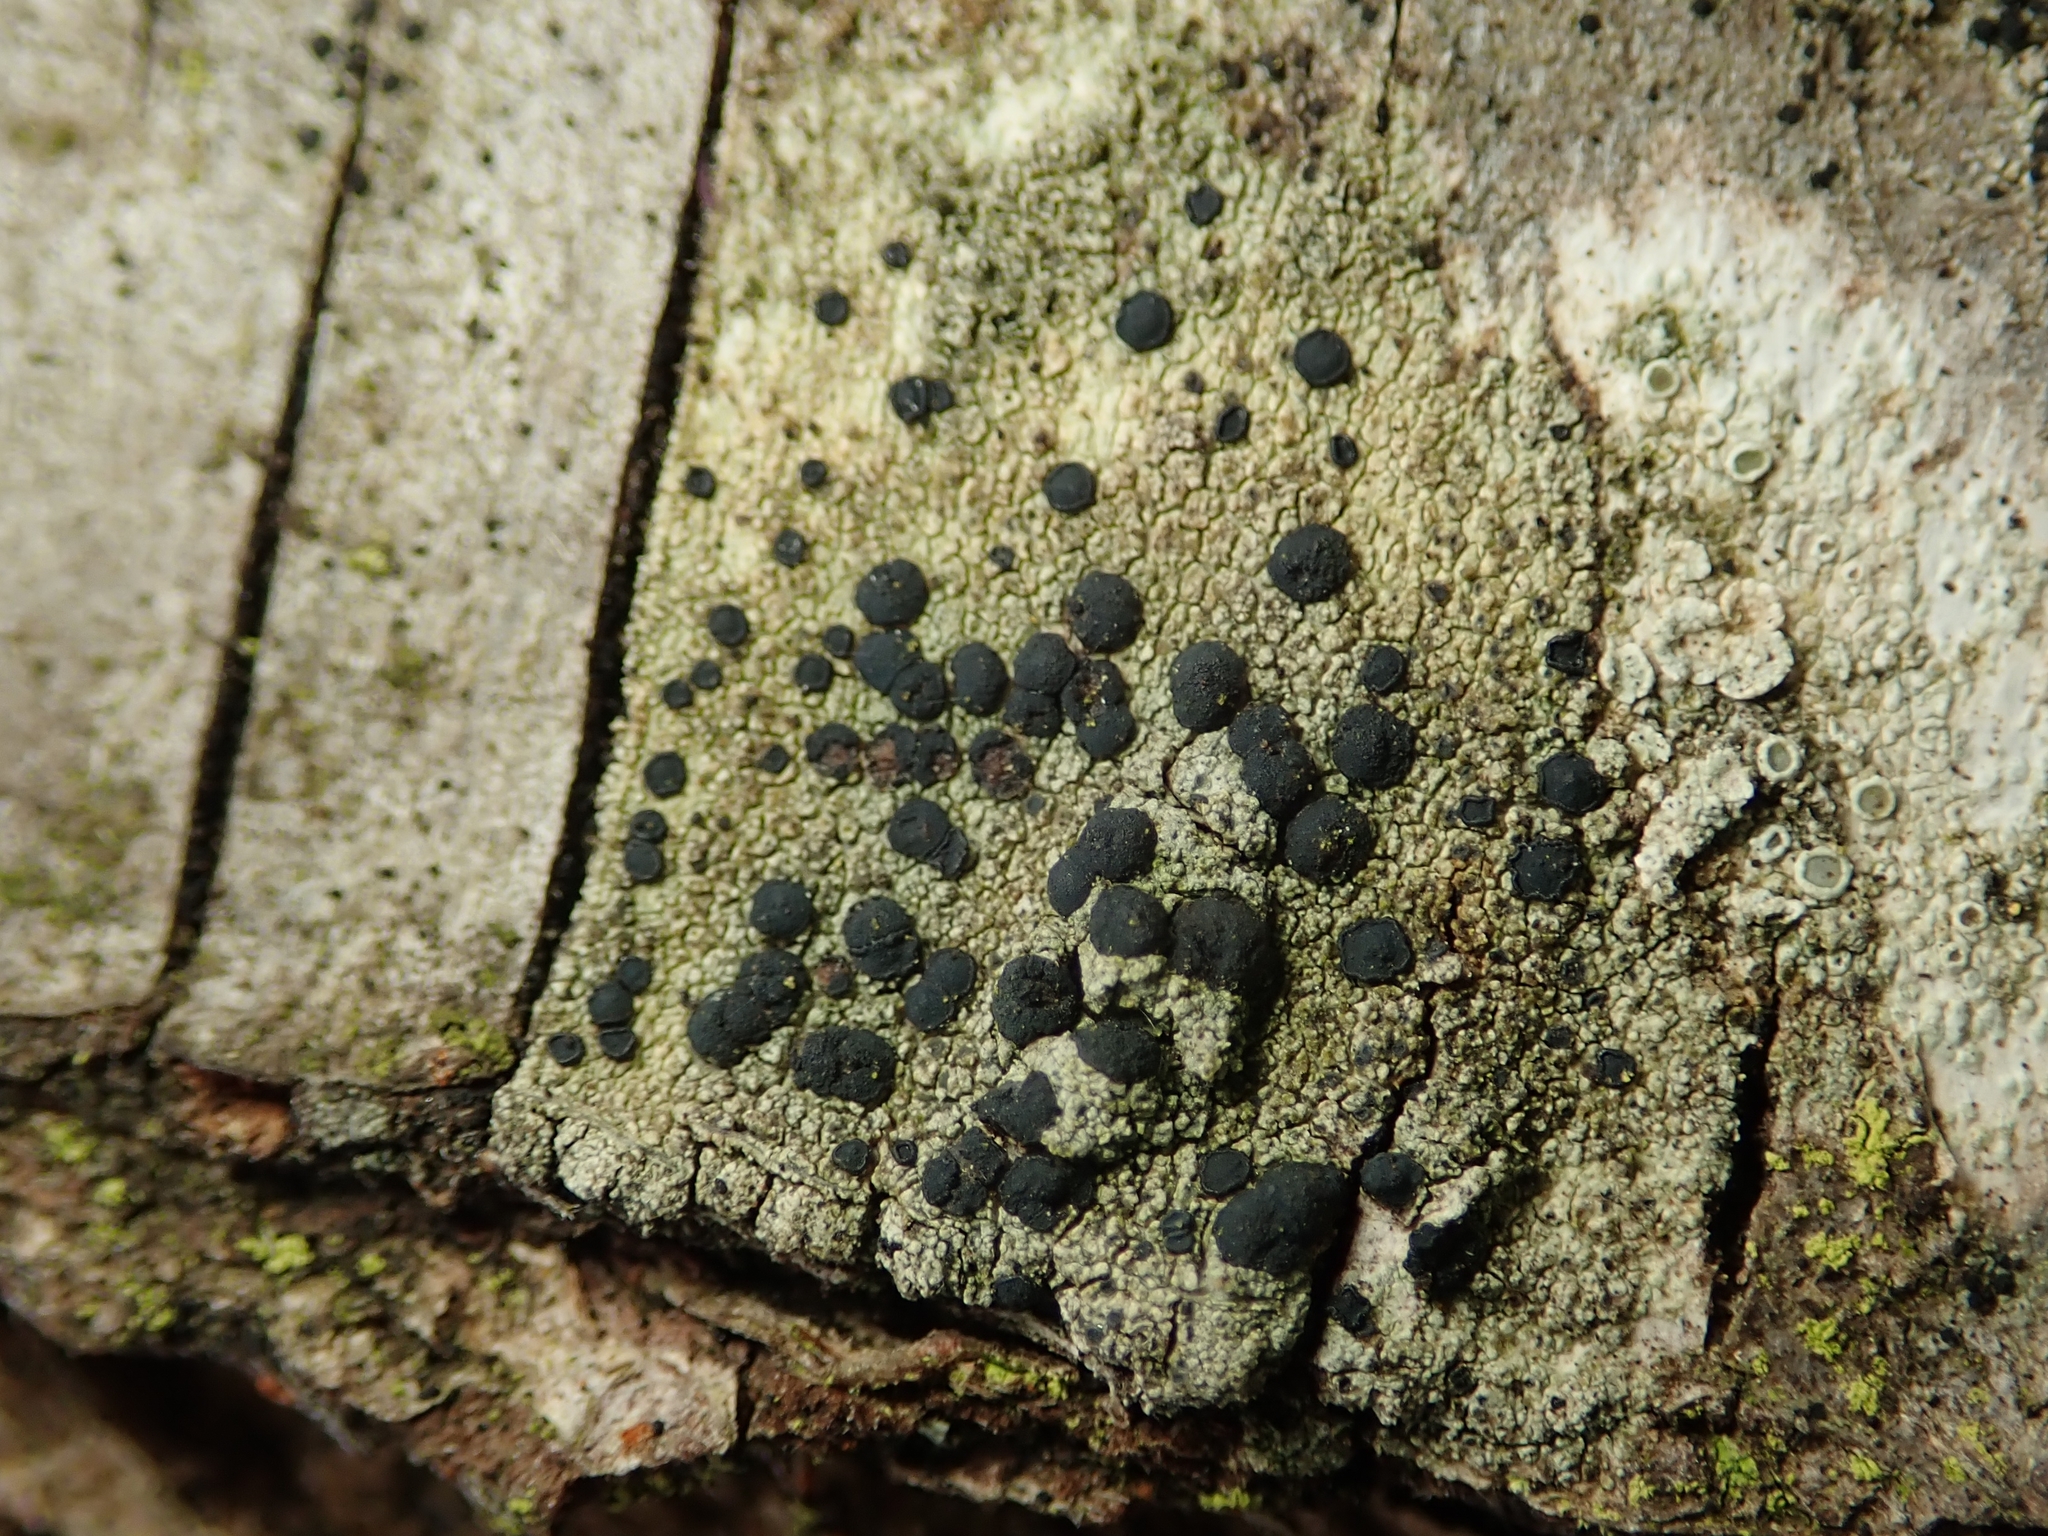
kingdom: Fungi
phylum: Ascomycota
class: Lecanoromycetes
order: Lecanorales
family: Lecanoraceae
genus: Lecidella
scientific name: Lecidella elaeochroma
